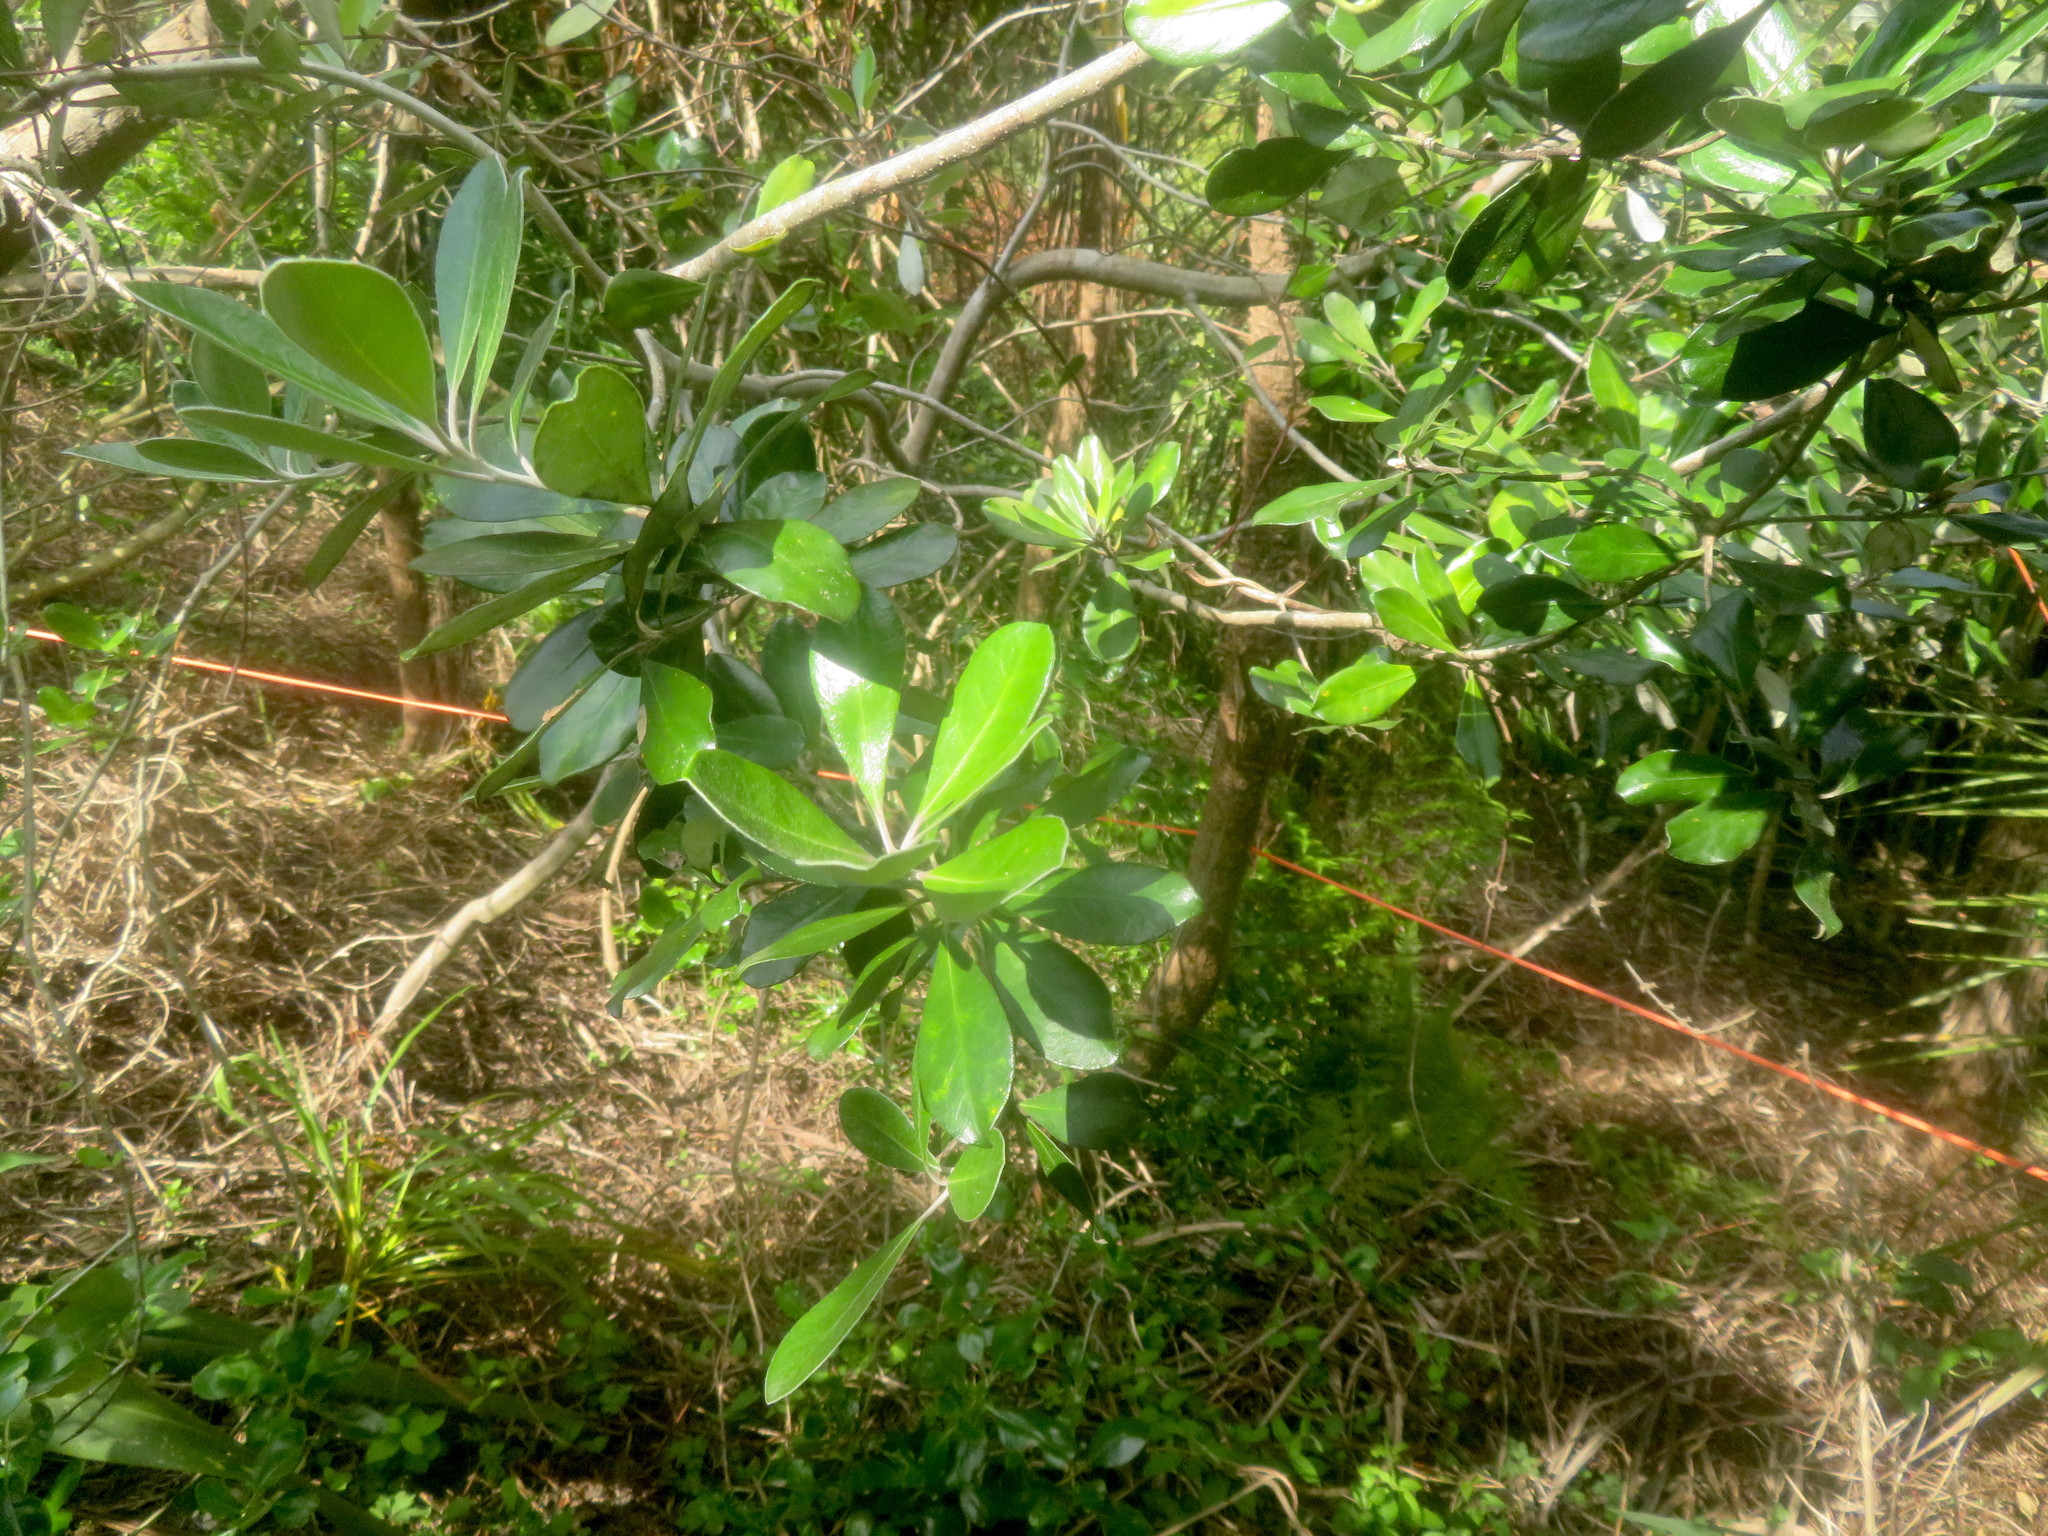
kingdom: Plantae
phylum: Tracheophyta
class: Magnoliopsida
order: Apiales
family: Pittosporaceae
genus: Pittosporum
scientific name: Pittosporum crassifolium
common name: Karo
